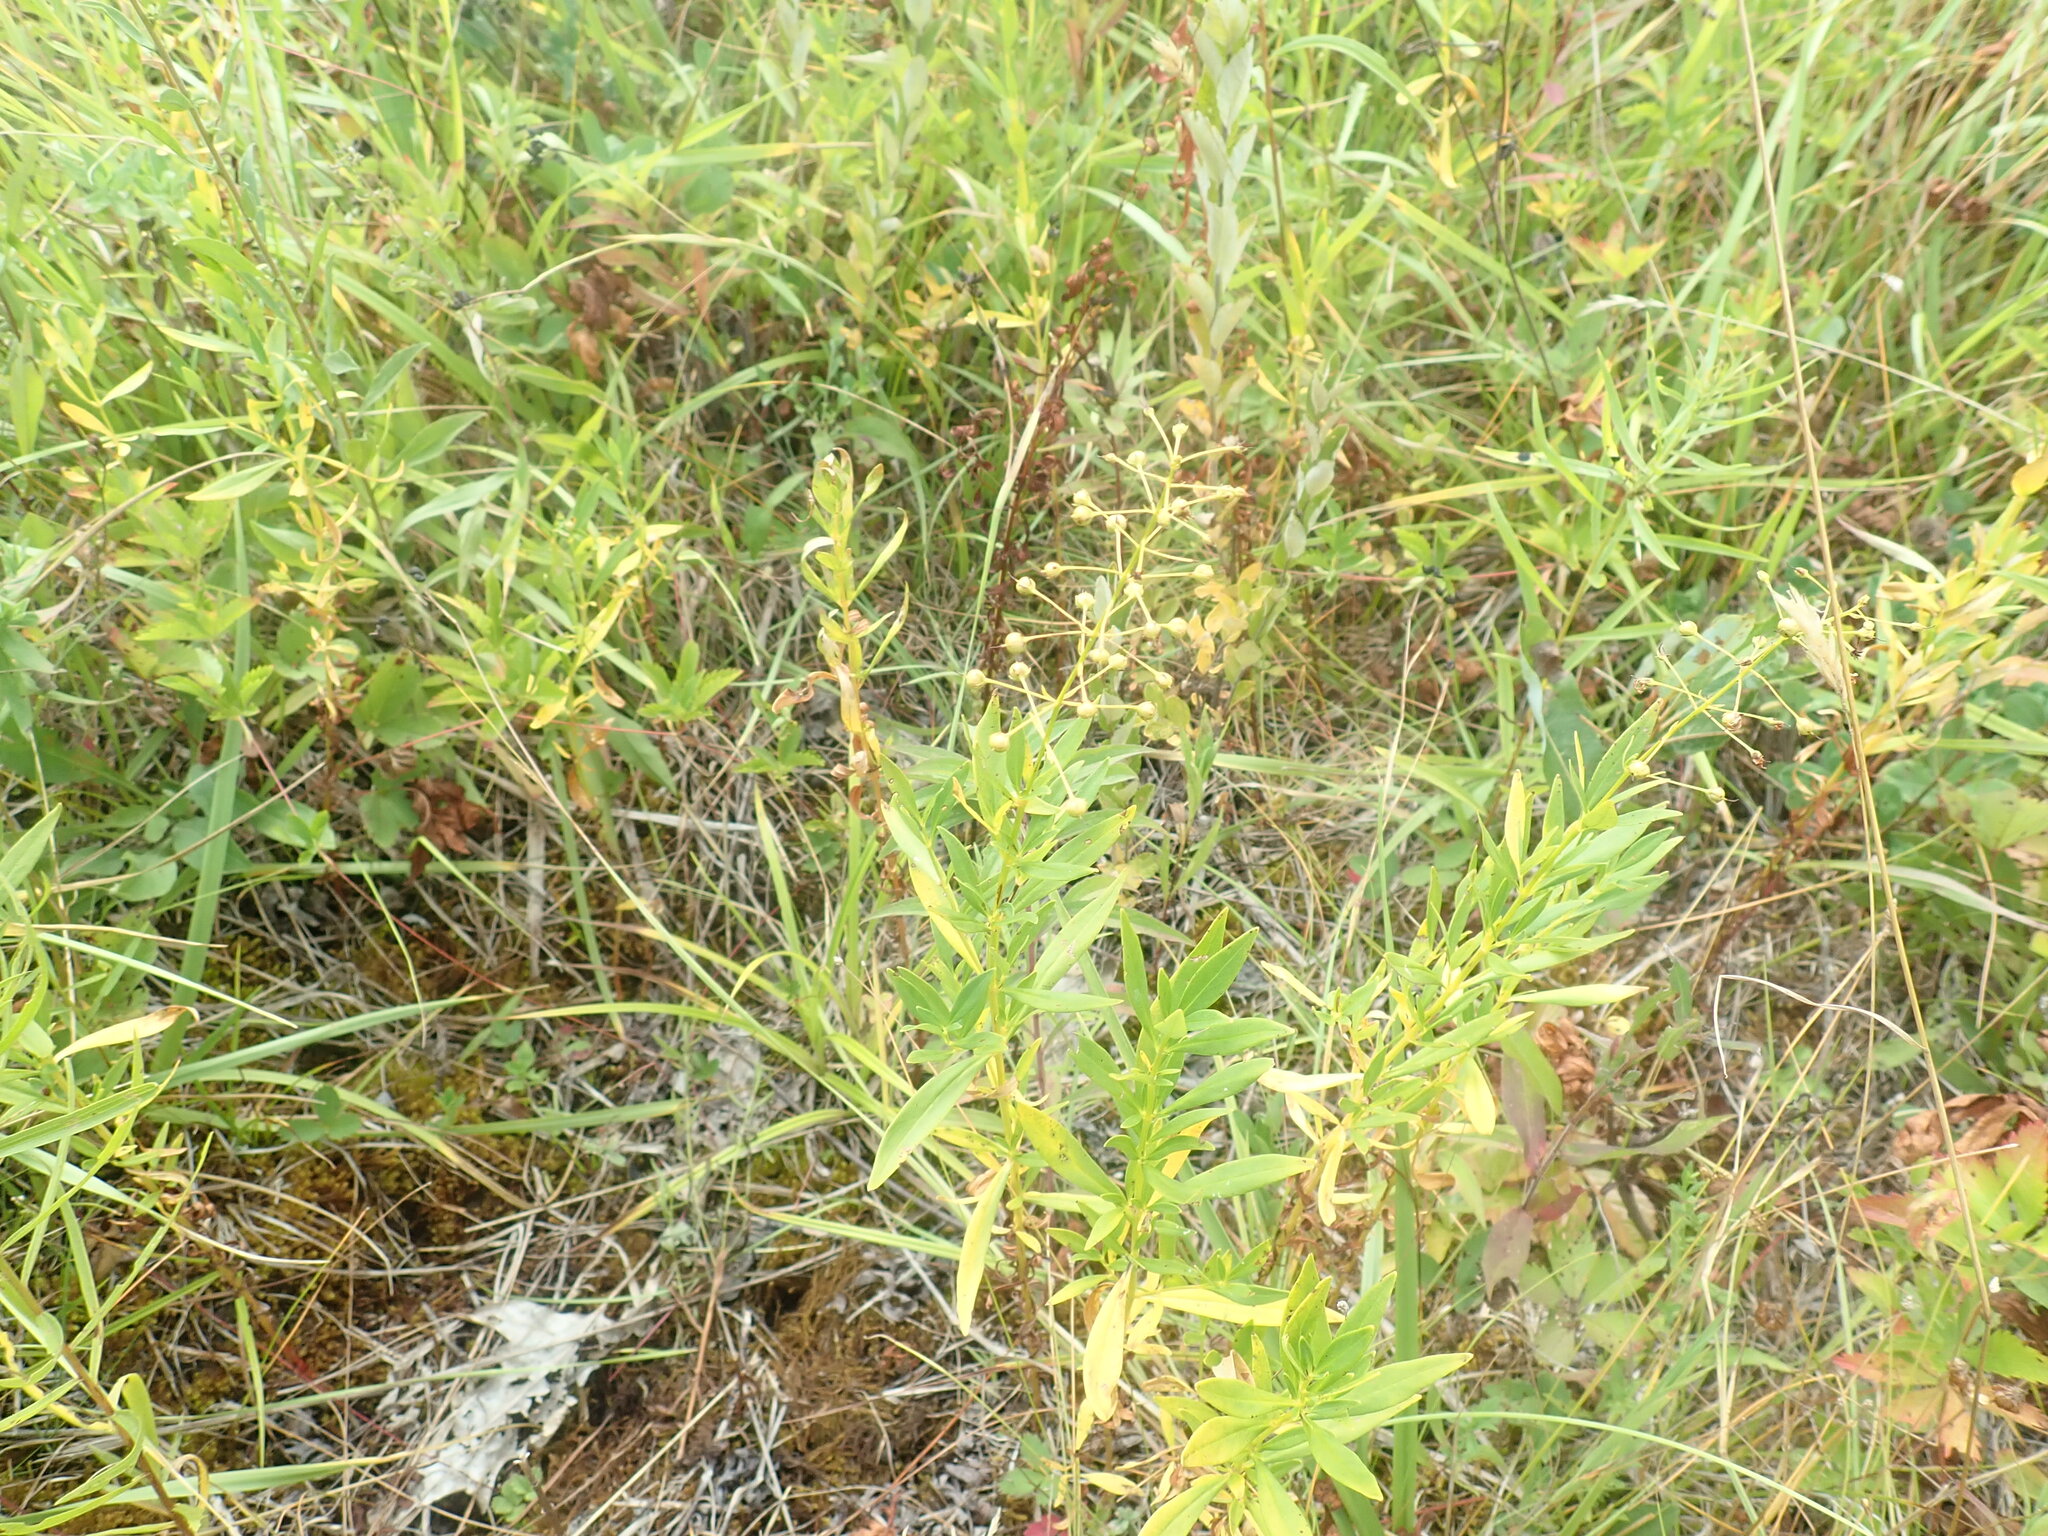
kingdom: Plantae
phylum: Tracheophyta
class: Magnoliopsida
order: Ericales
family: Primulaceae
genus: Lysimachia
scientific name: Lysimachia terrestris
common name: Lake loosestrife
